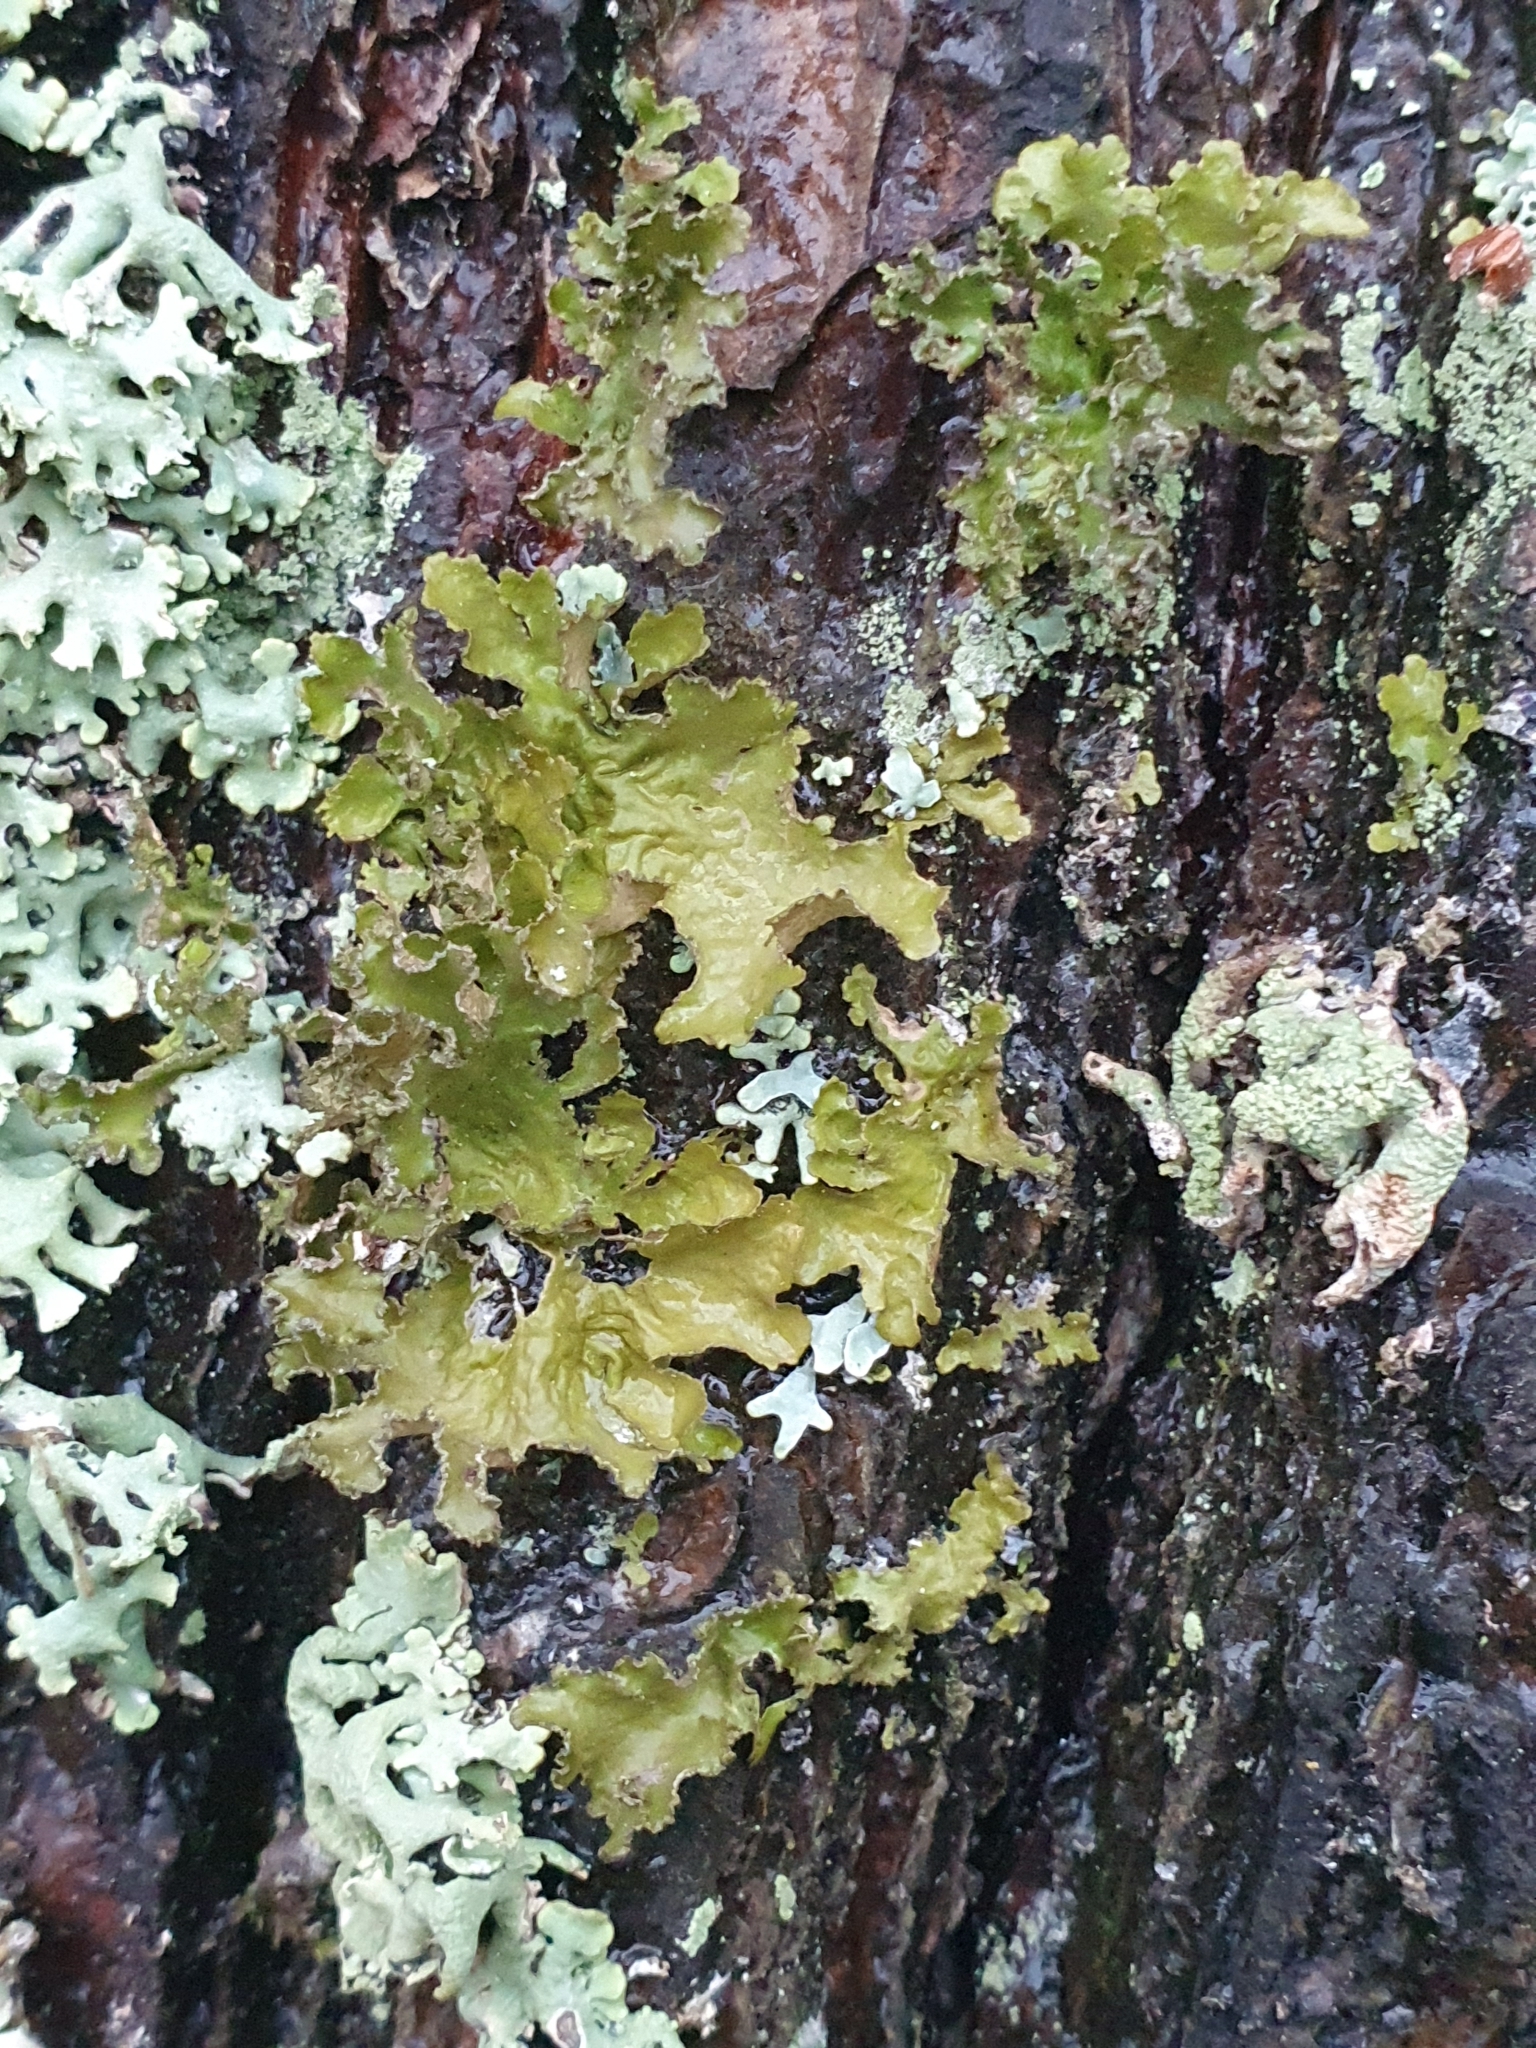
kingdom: Fungi
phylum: Ascomycota
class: Lecanoromycetes
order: Lecanorales
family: Parmeliaceae
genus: Nephromopsis
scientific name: Nephromopsis chlorophylla
